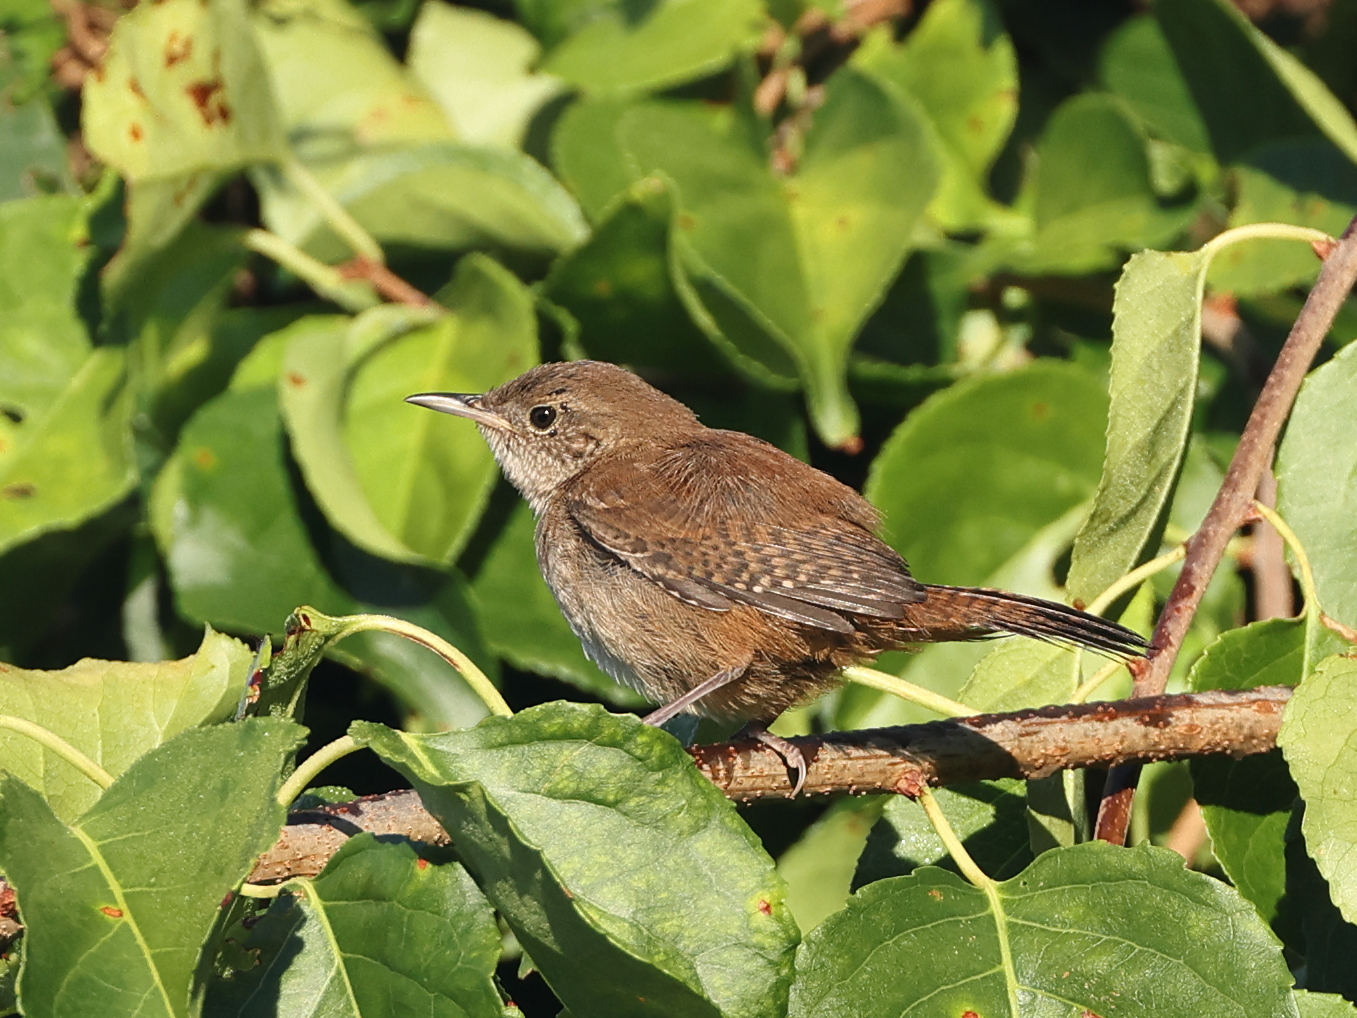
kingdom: Animalia
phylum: Chordata
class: Aves
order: Passeriformes
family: Troglodytidae
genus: Troglodytes
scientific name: Troglodytes aedon
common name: House wren
